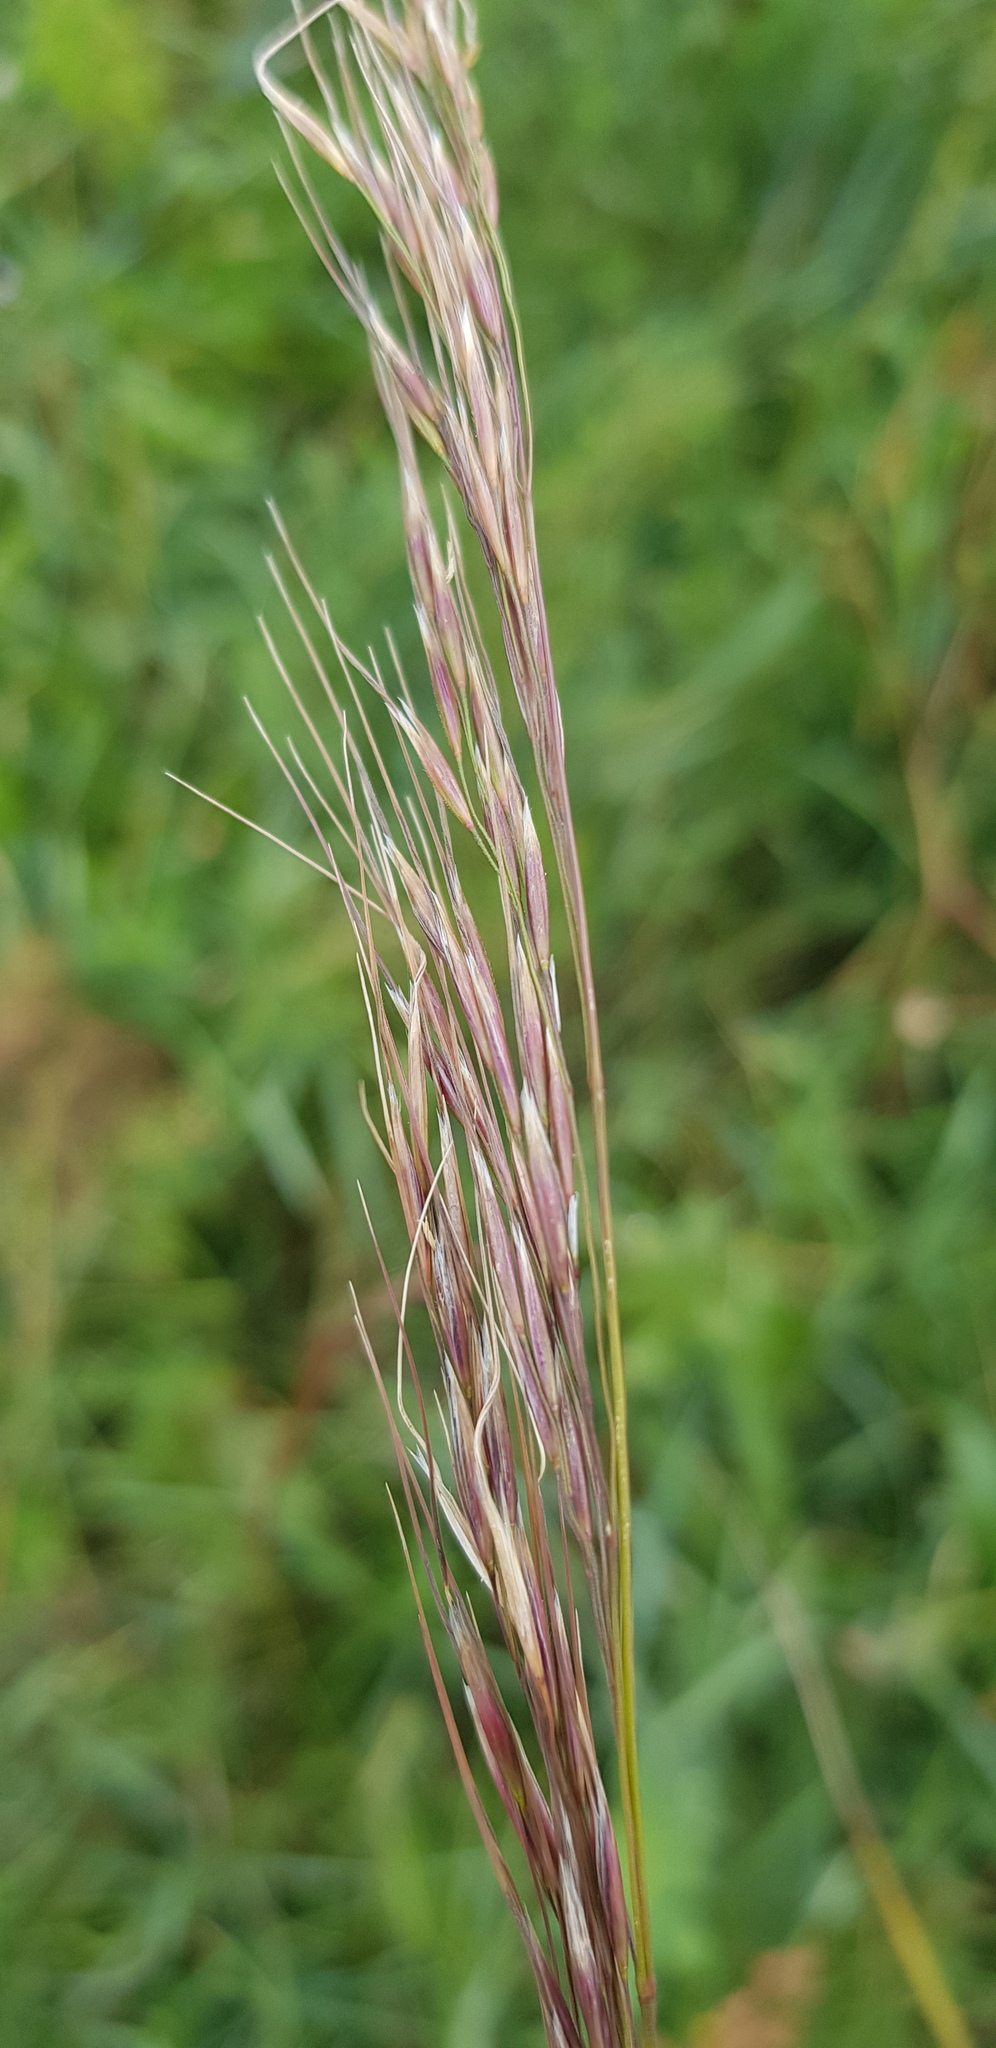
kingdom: Plantae
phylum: Tracheophyta
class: Liliopsida
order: Poales
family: Poaceae
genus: Achnatherum
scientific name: Achnatherum sibiricum
